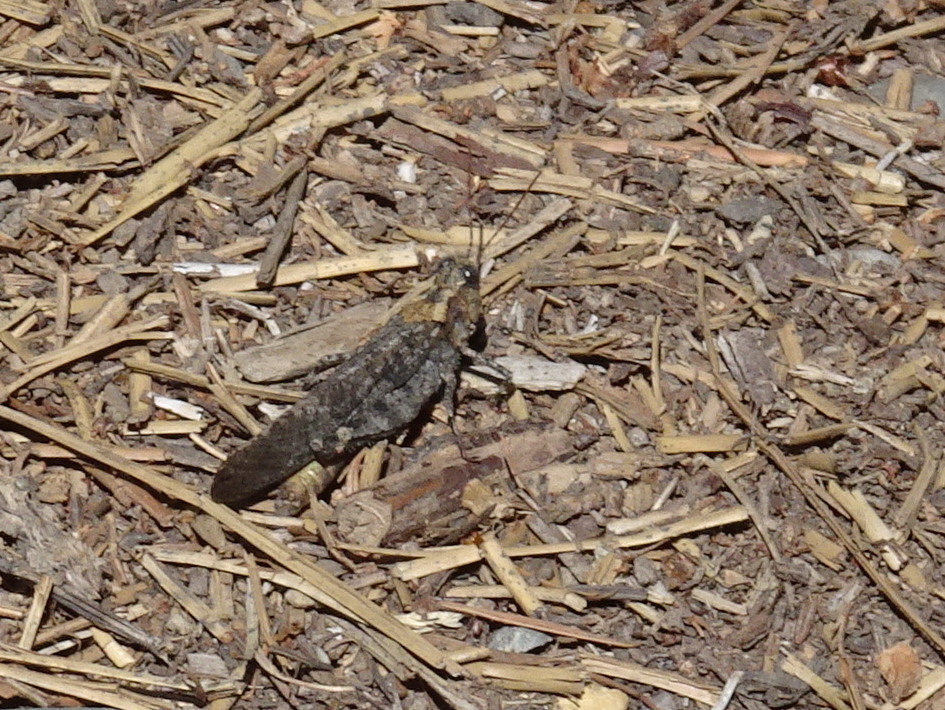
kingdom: Animalia
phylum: Arthropoda
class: Insecta
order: Orthoptera
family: Acrididae
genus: Trimerotropis
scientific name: Trimerotropis verruculata
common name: Crackling forest grasshopper
